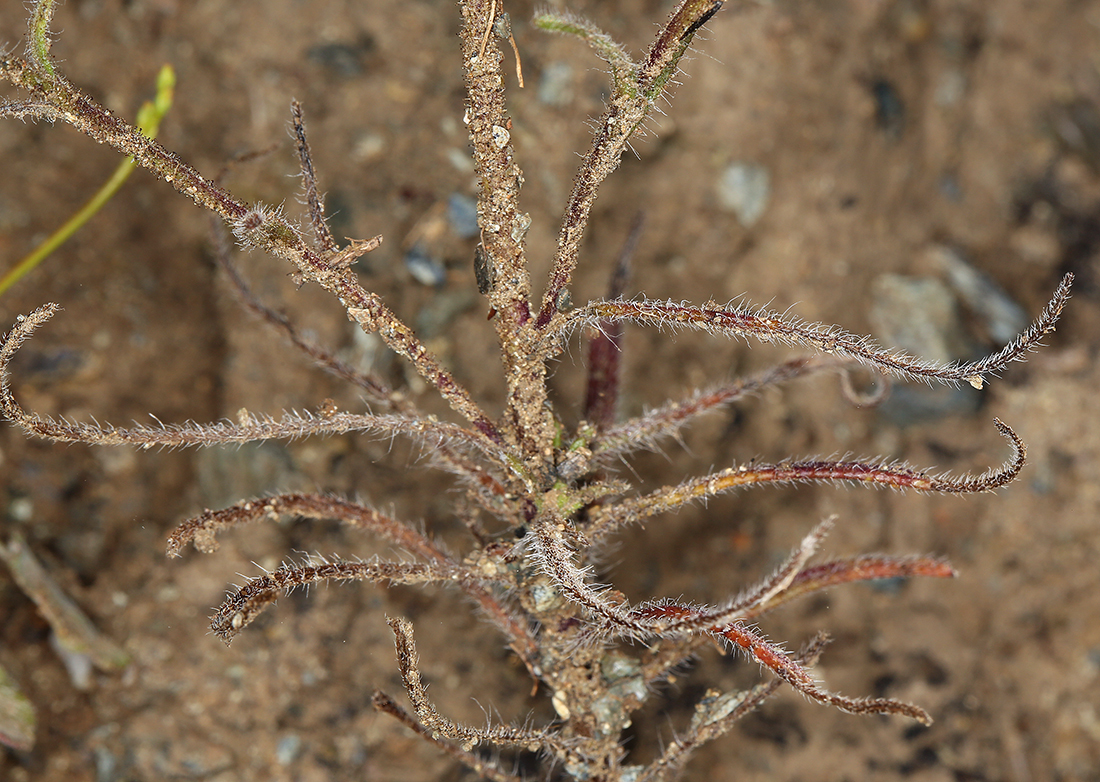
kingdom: Plantae
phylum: Tracheophyta
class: Magnoliopsida
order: Asterales
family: Asteraceae
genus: Harmonia
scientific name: Harmonia guggolziorum
